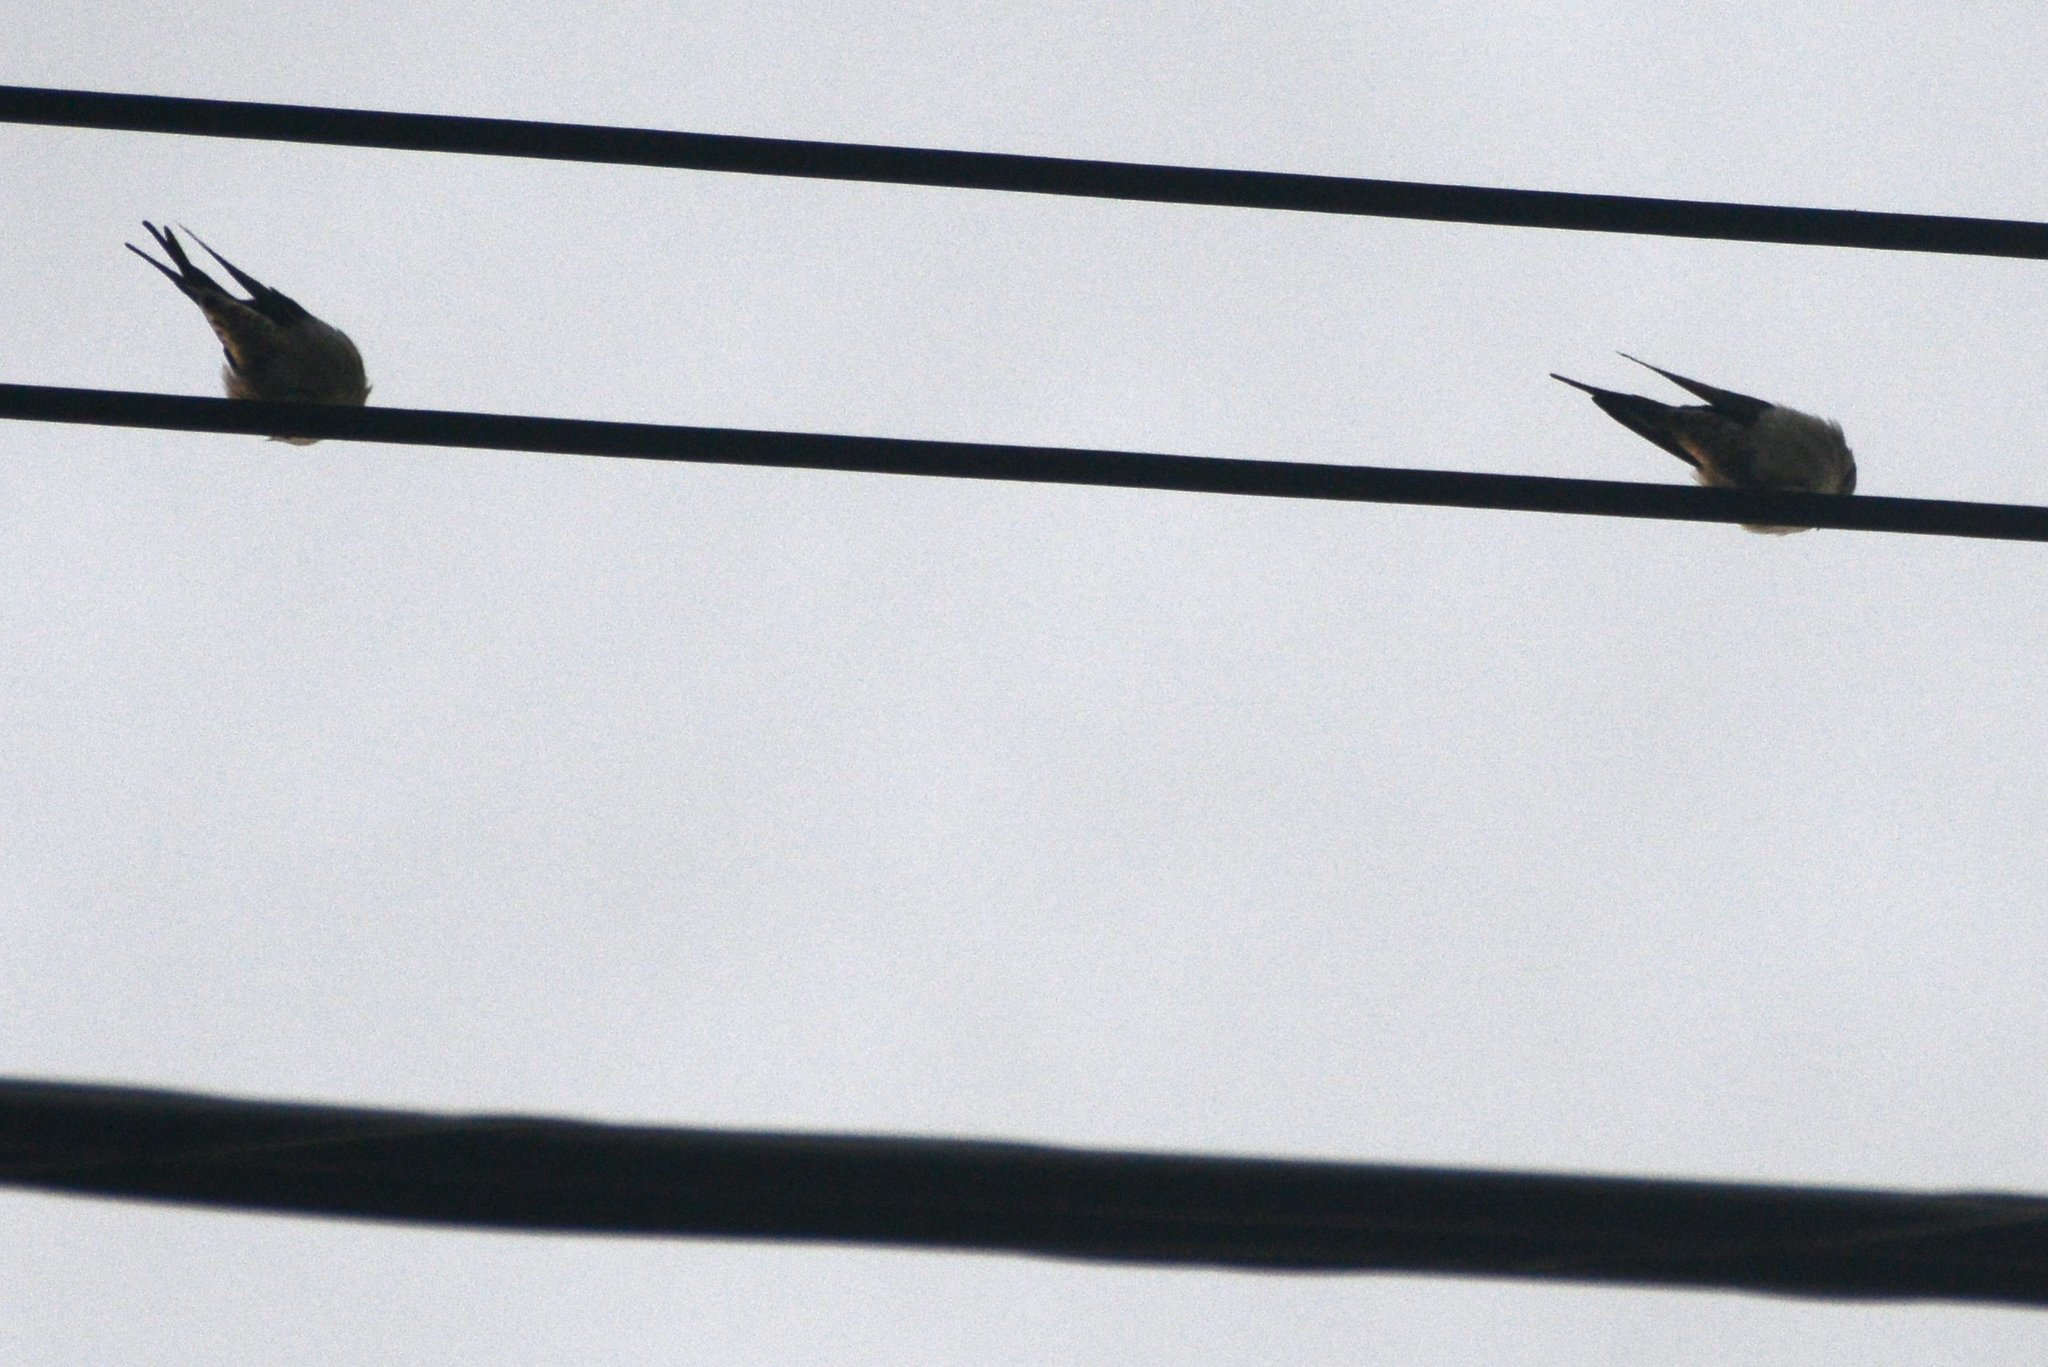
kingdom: Animalia
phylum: Chordata
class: Aves
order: Passeriformes
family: Hirundinidae
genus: Hirundo
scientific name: Hirundo neoxena
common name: Welcome swallow
